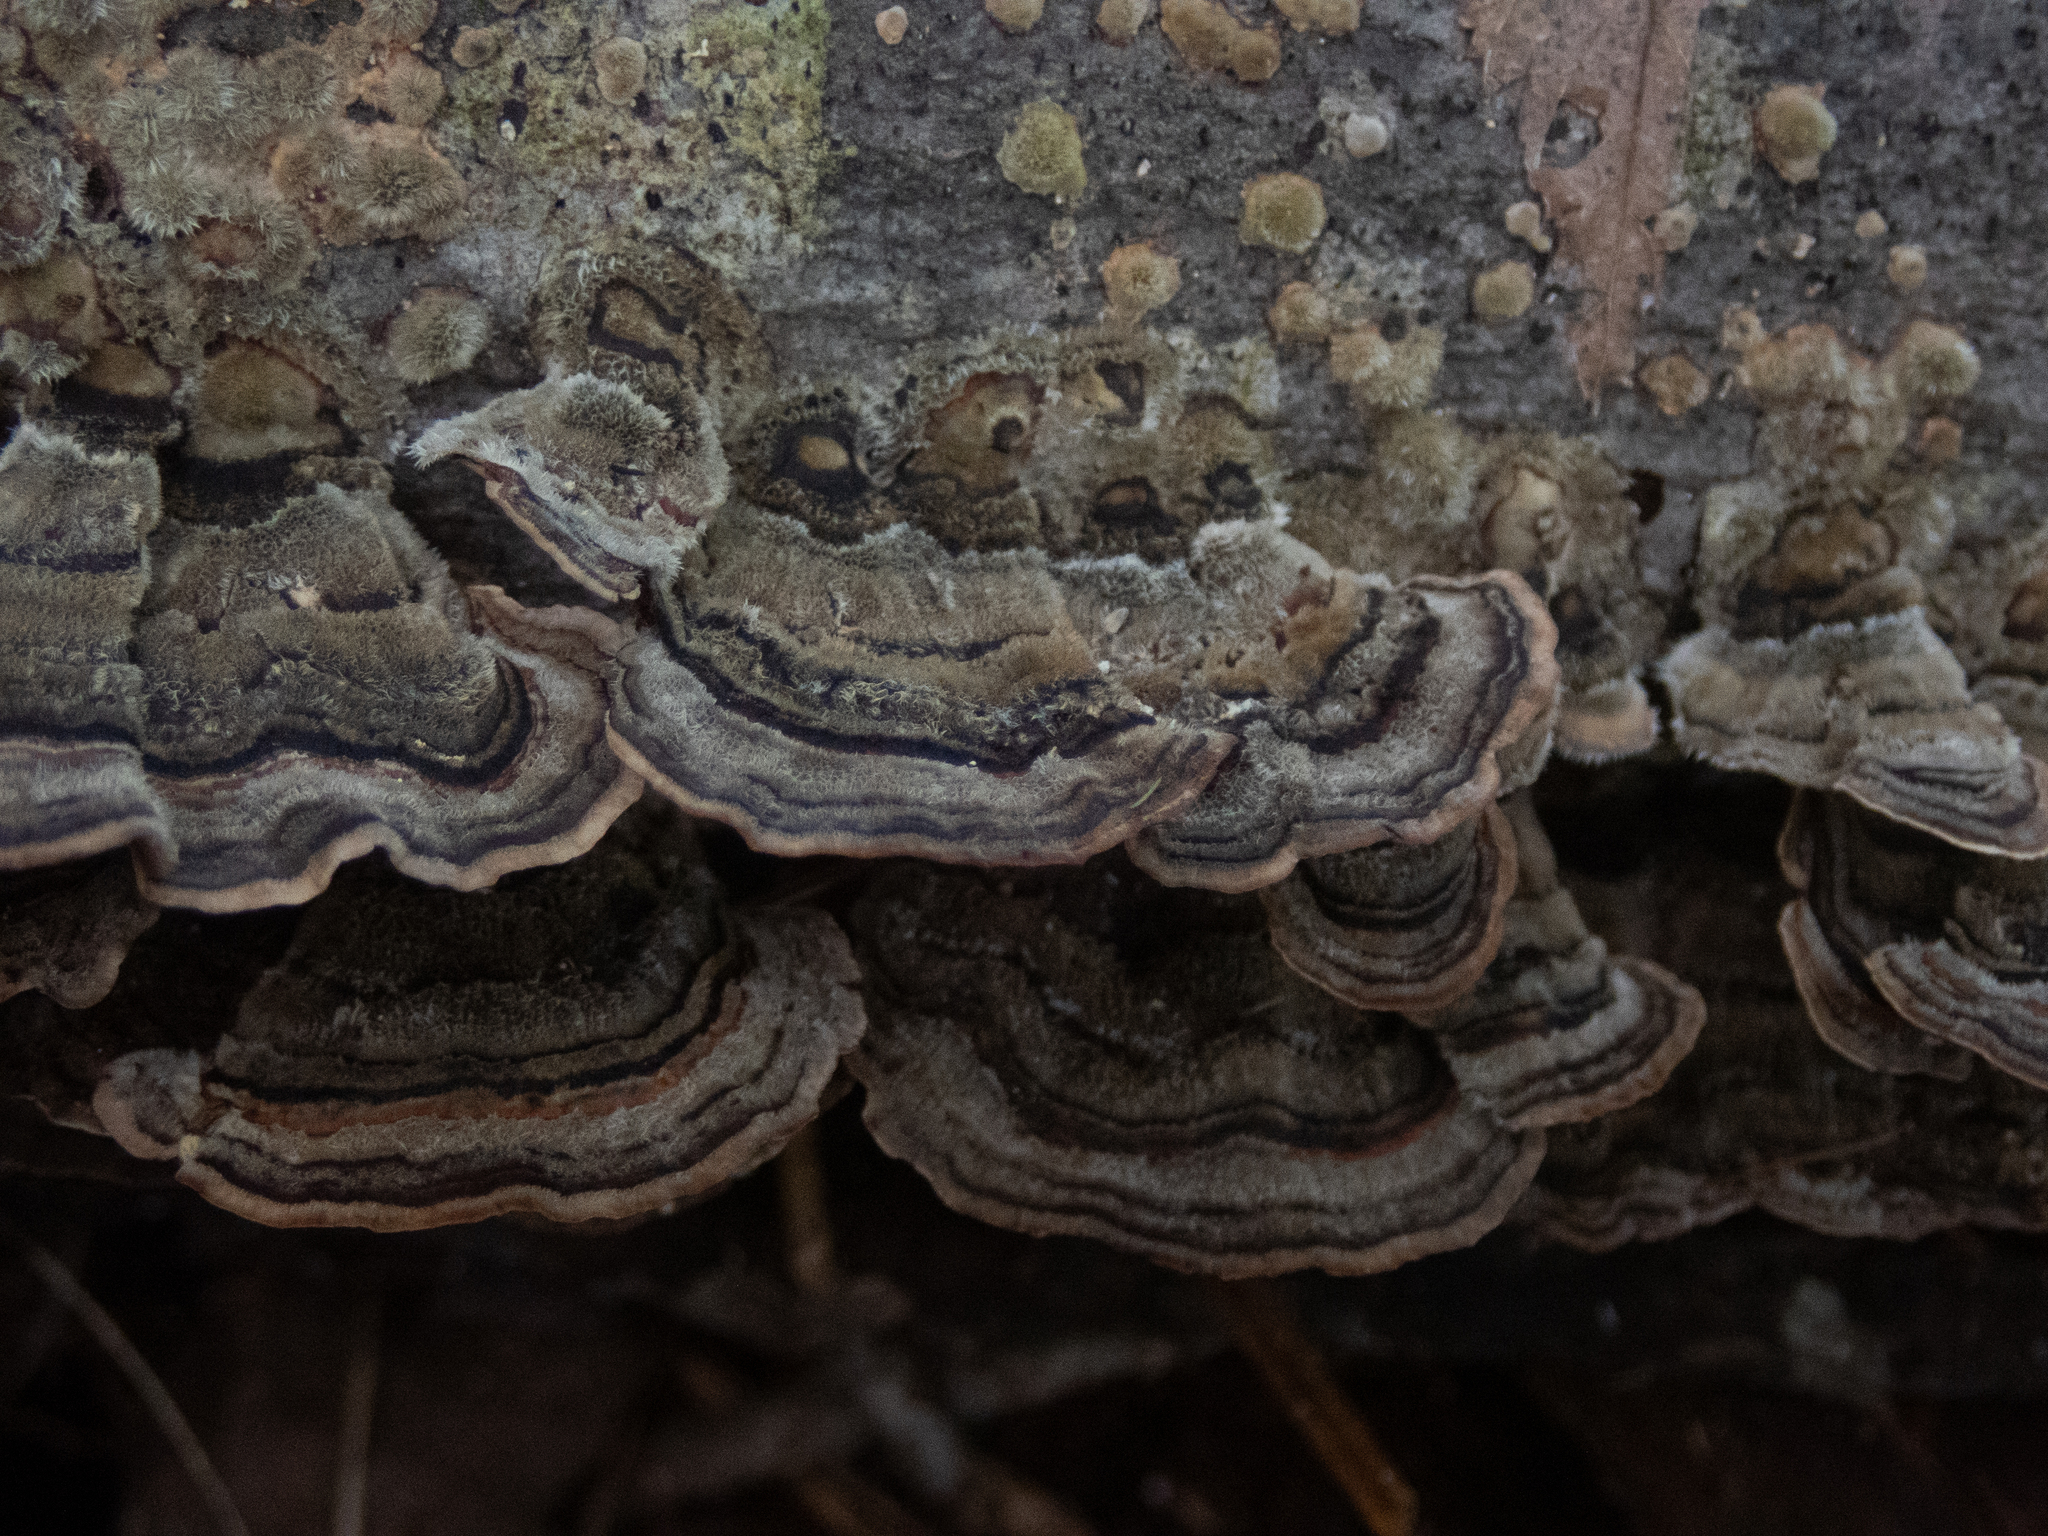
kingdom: Fungi
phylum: Basidiomycota
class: Agaricomycetes
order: Polyporales
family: Polyporaceae
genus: Trametes
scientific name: Trametes versicolor
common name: Turkeytail
